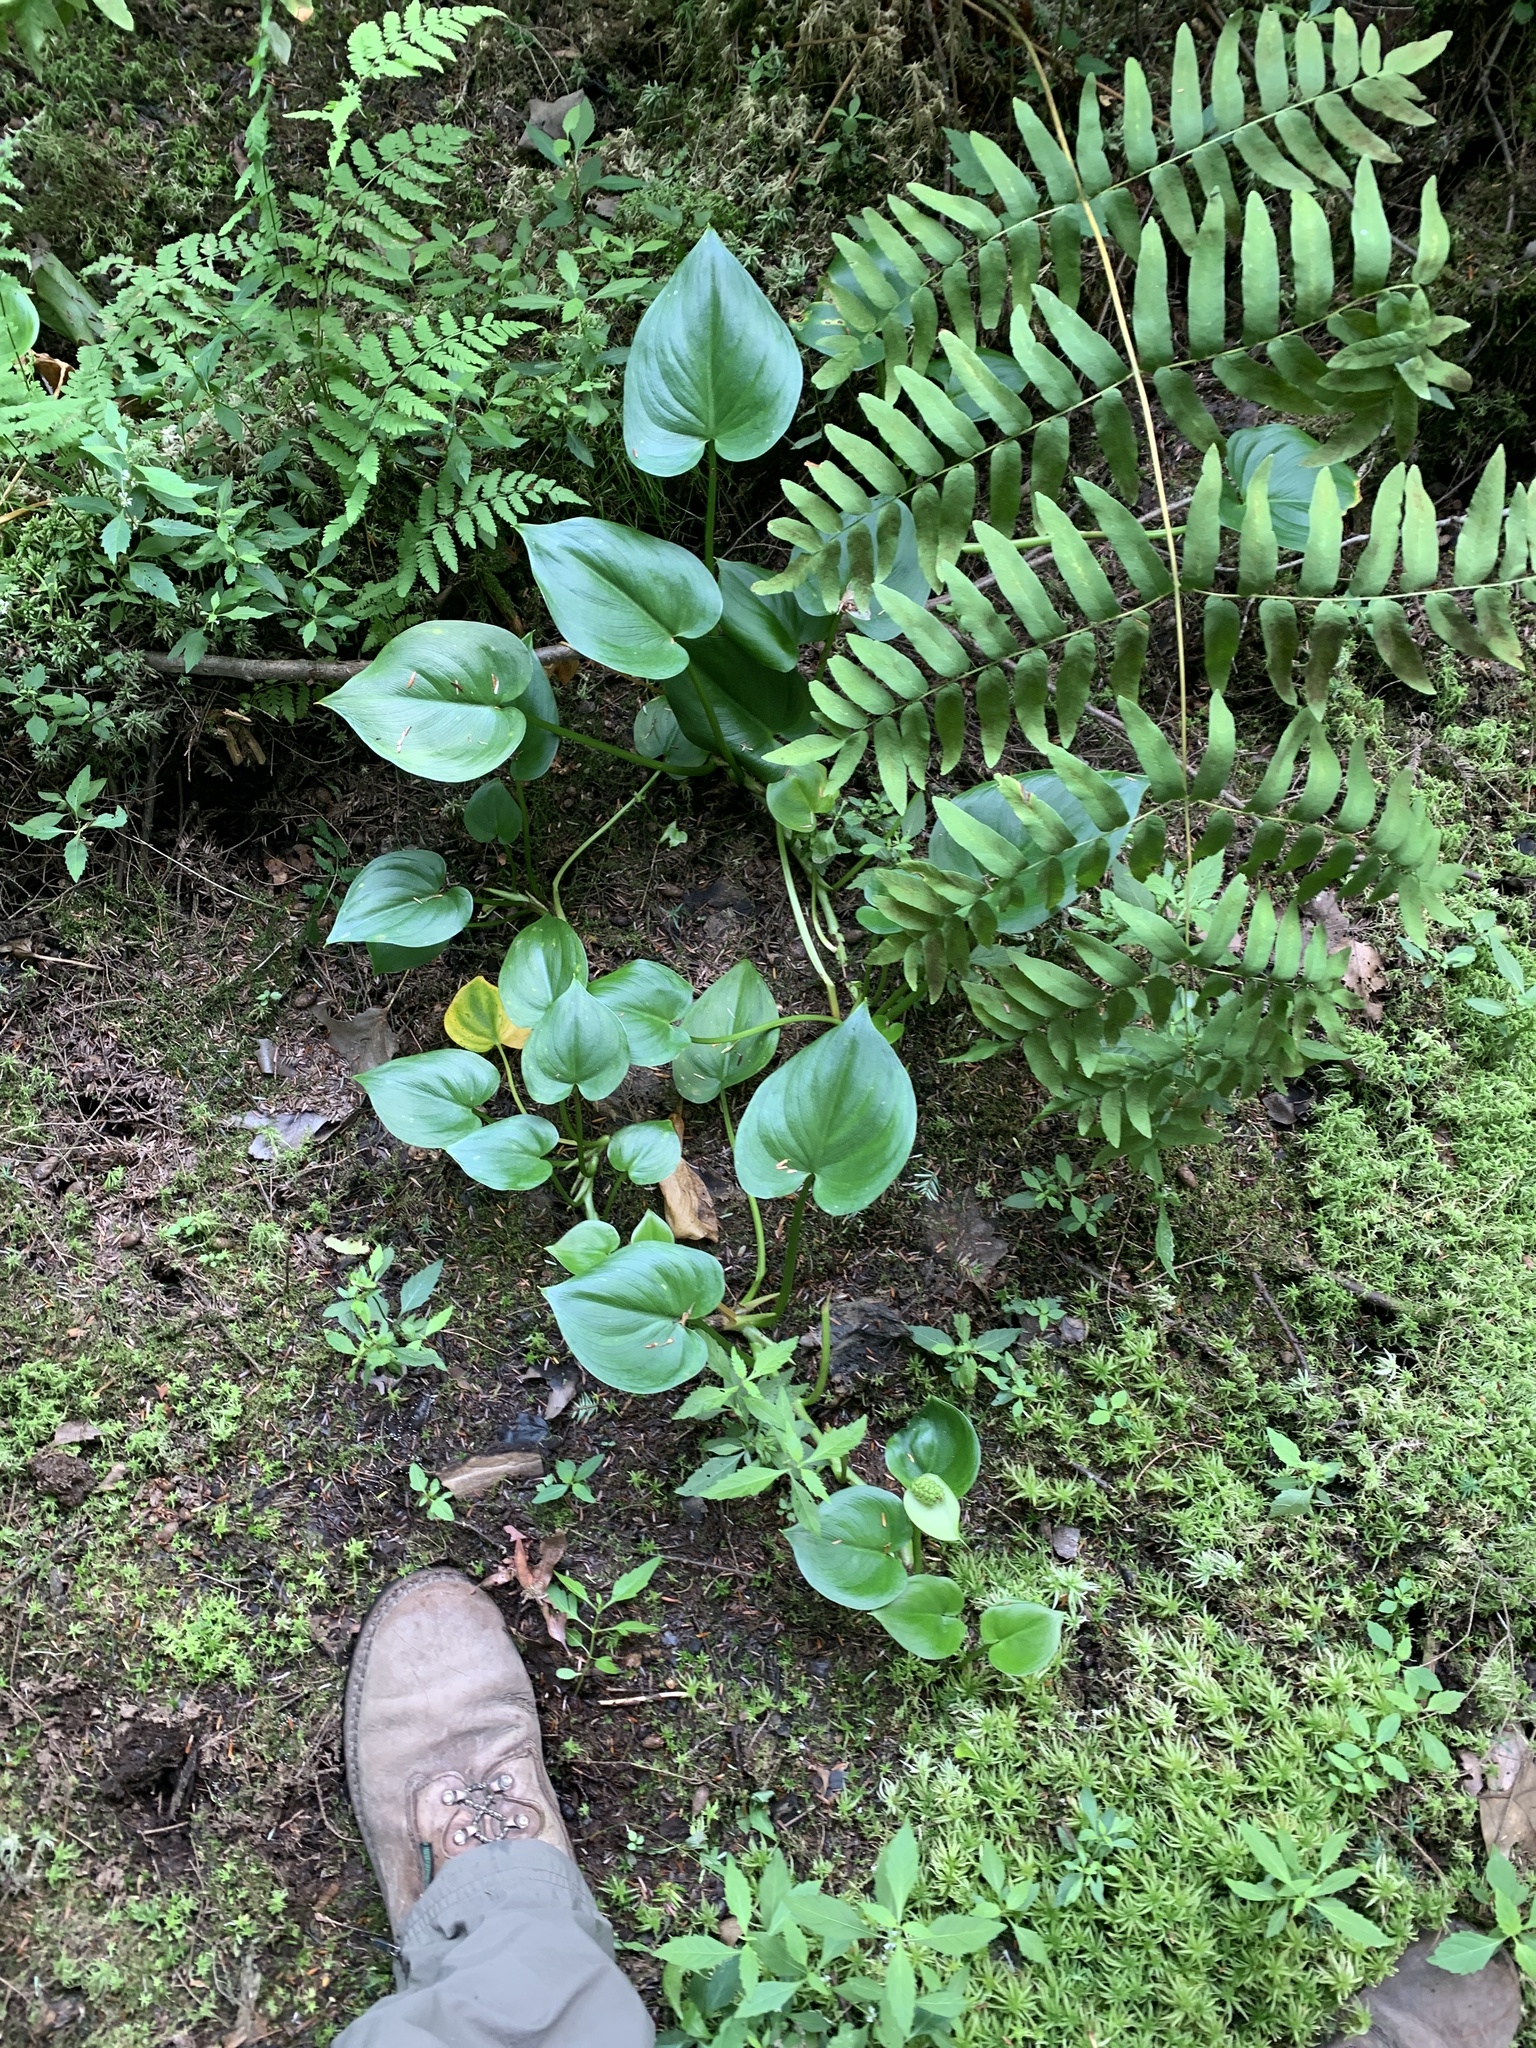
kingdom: Plantae
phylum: Tracheophyta
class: Liliopsida
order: Alismatales
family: Araceae
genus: Calla
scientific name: Calla palustris
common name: Bog arum
